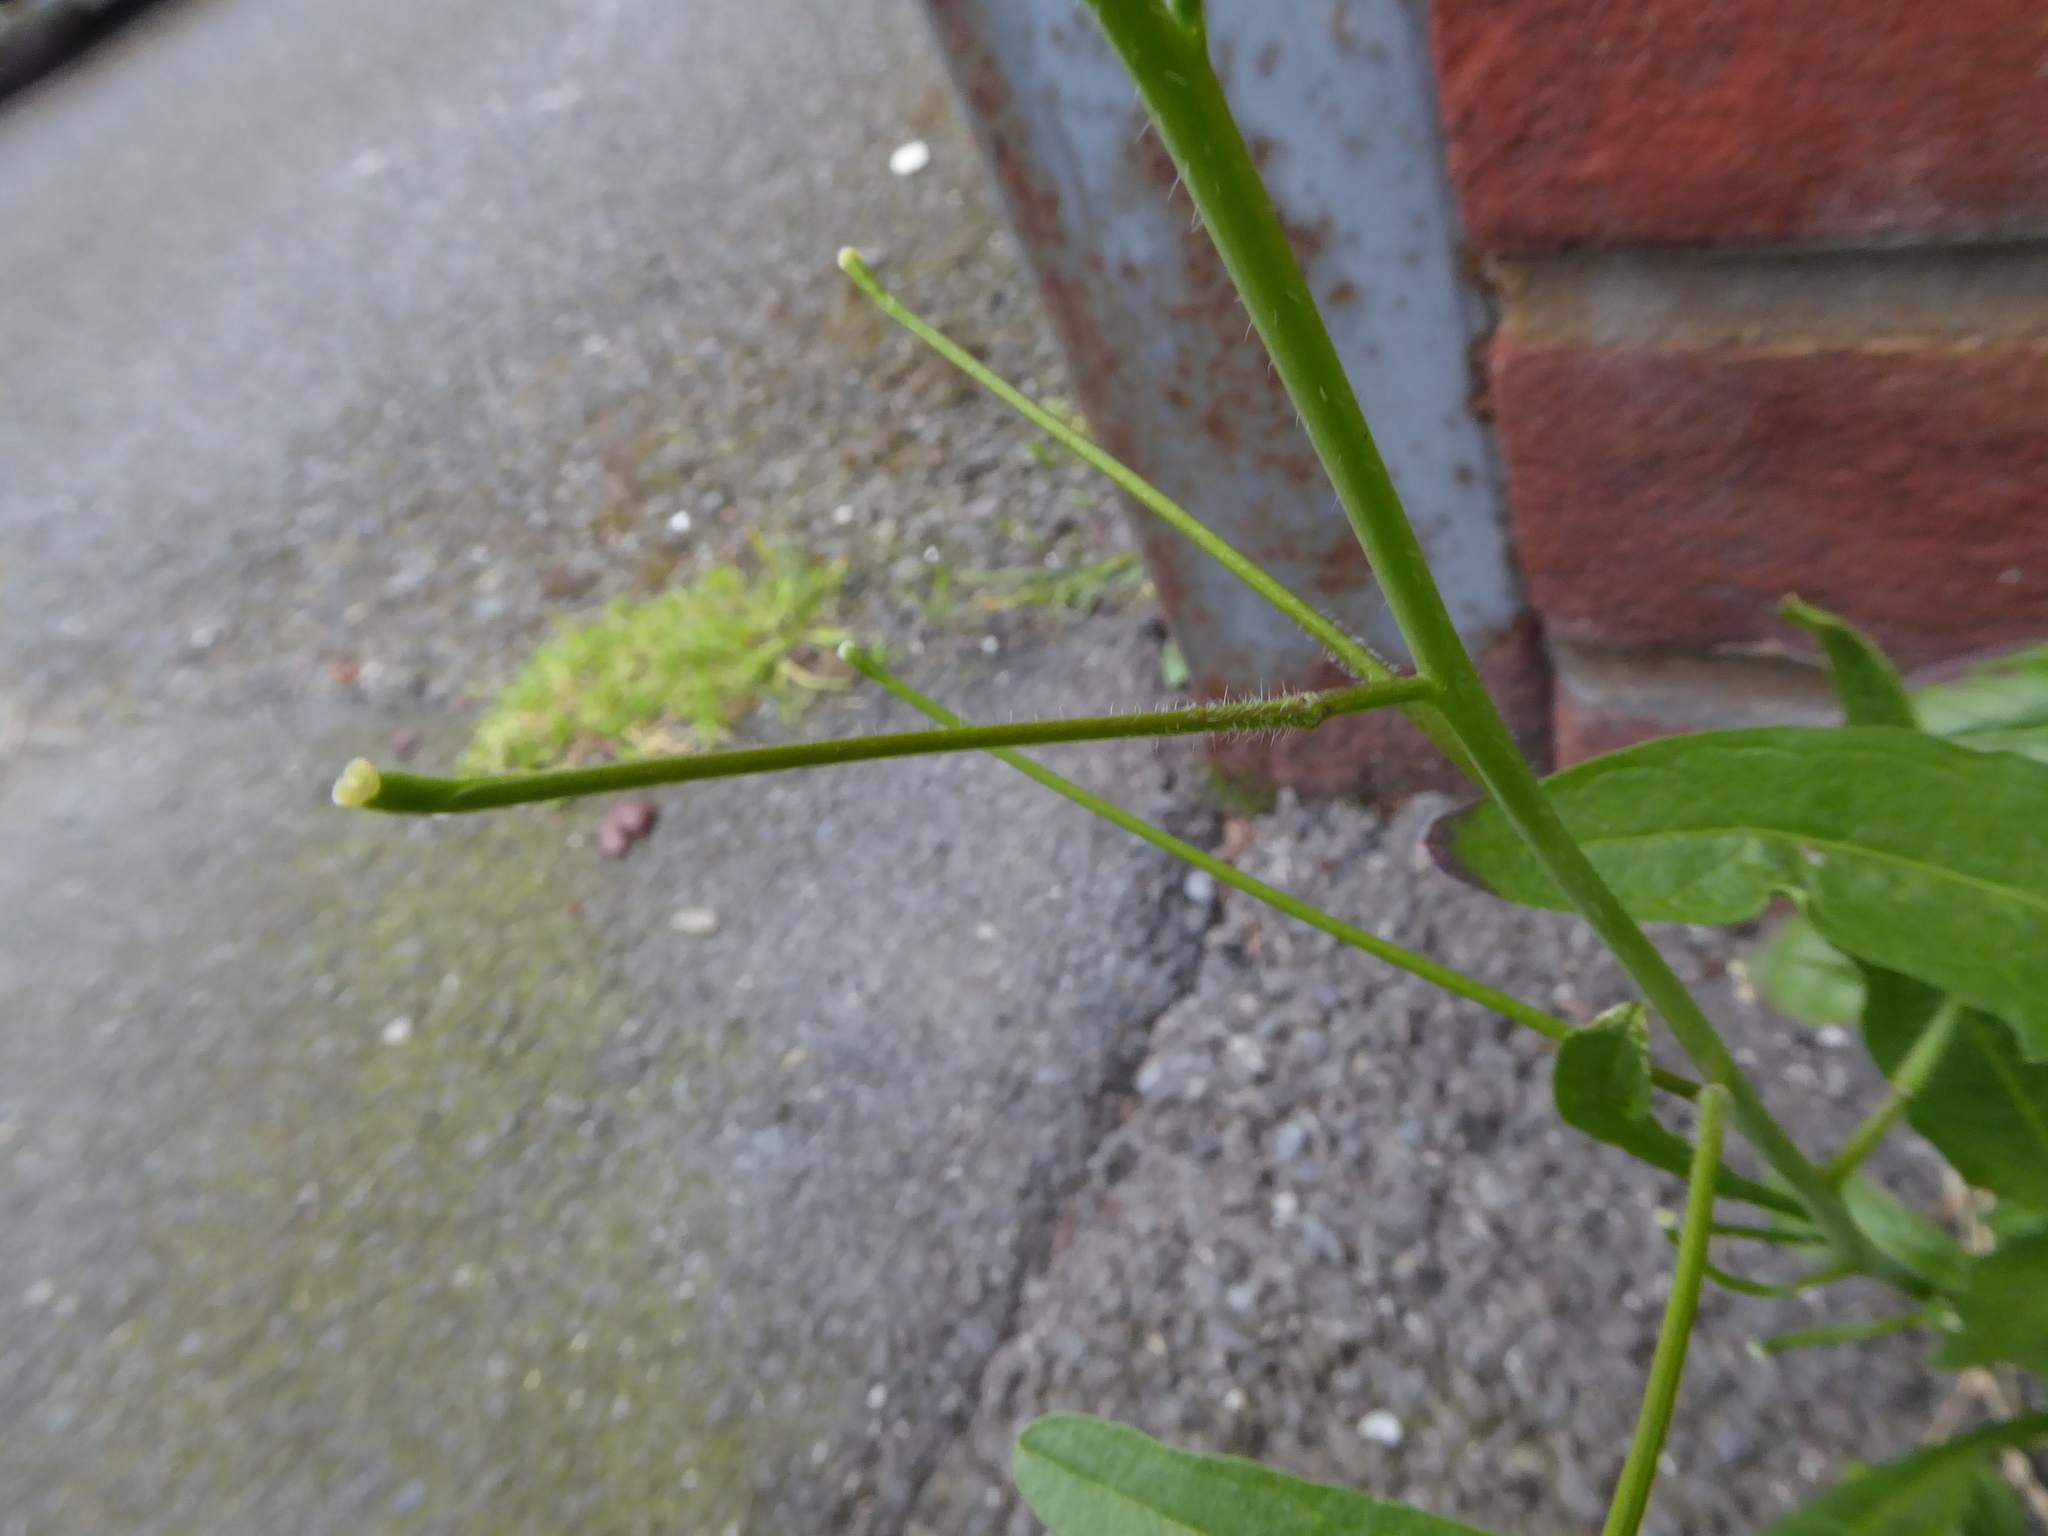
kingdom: Plantae
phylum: Tracheophyta
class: Magnoliopsida
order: Brassicales
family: Brassicaceae
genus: Sisymbrium
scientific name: Sisymbrium orientale
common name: Eastern rocket
